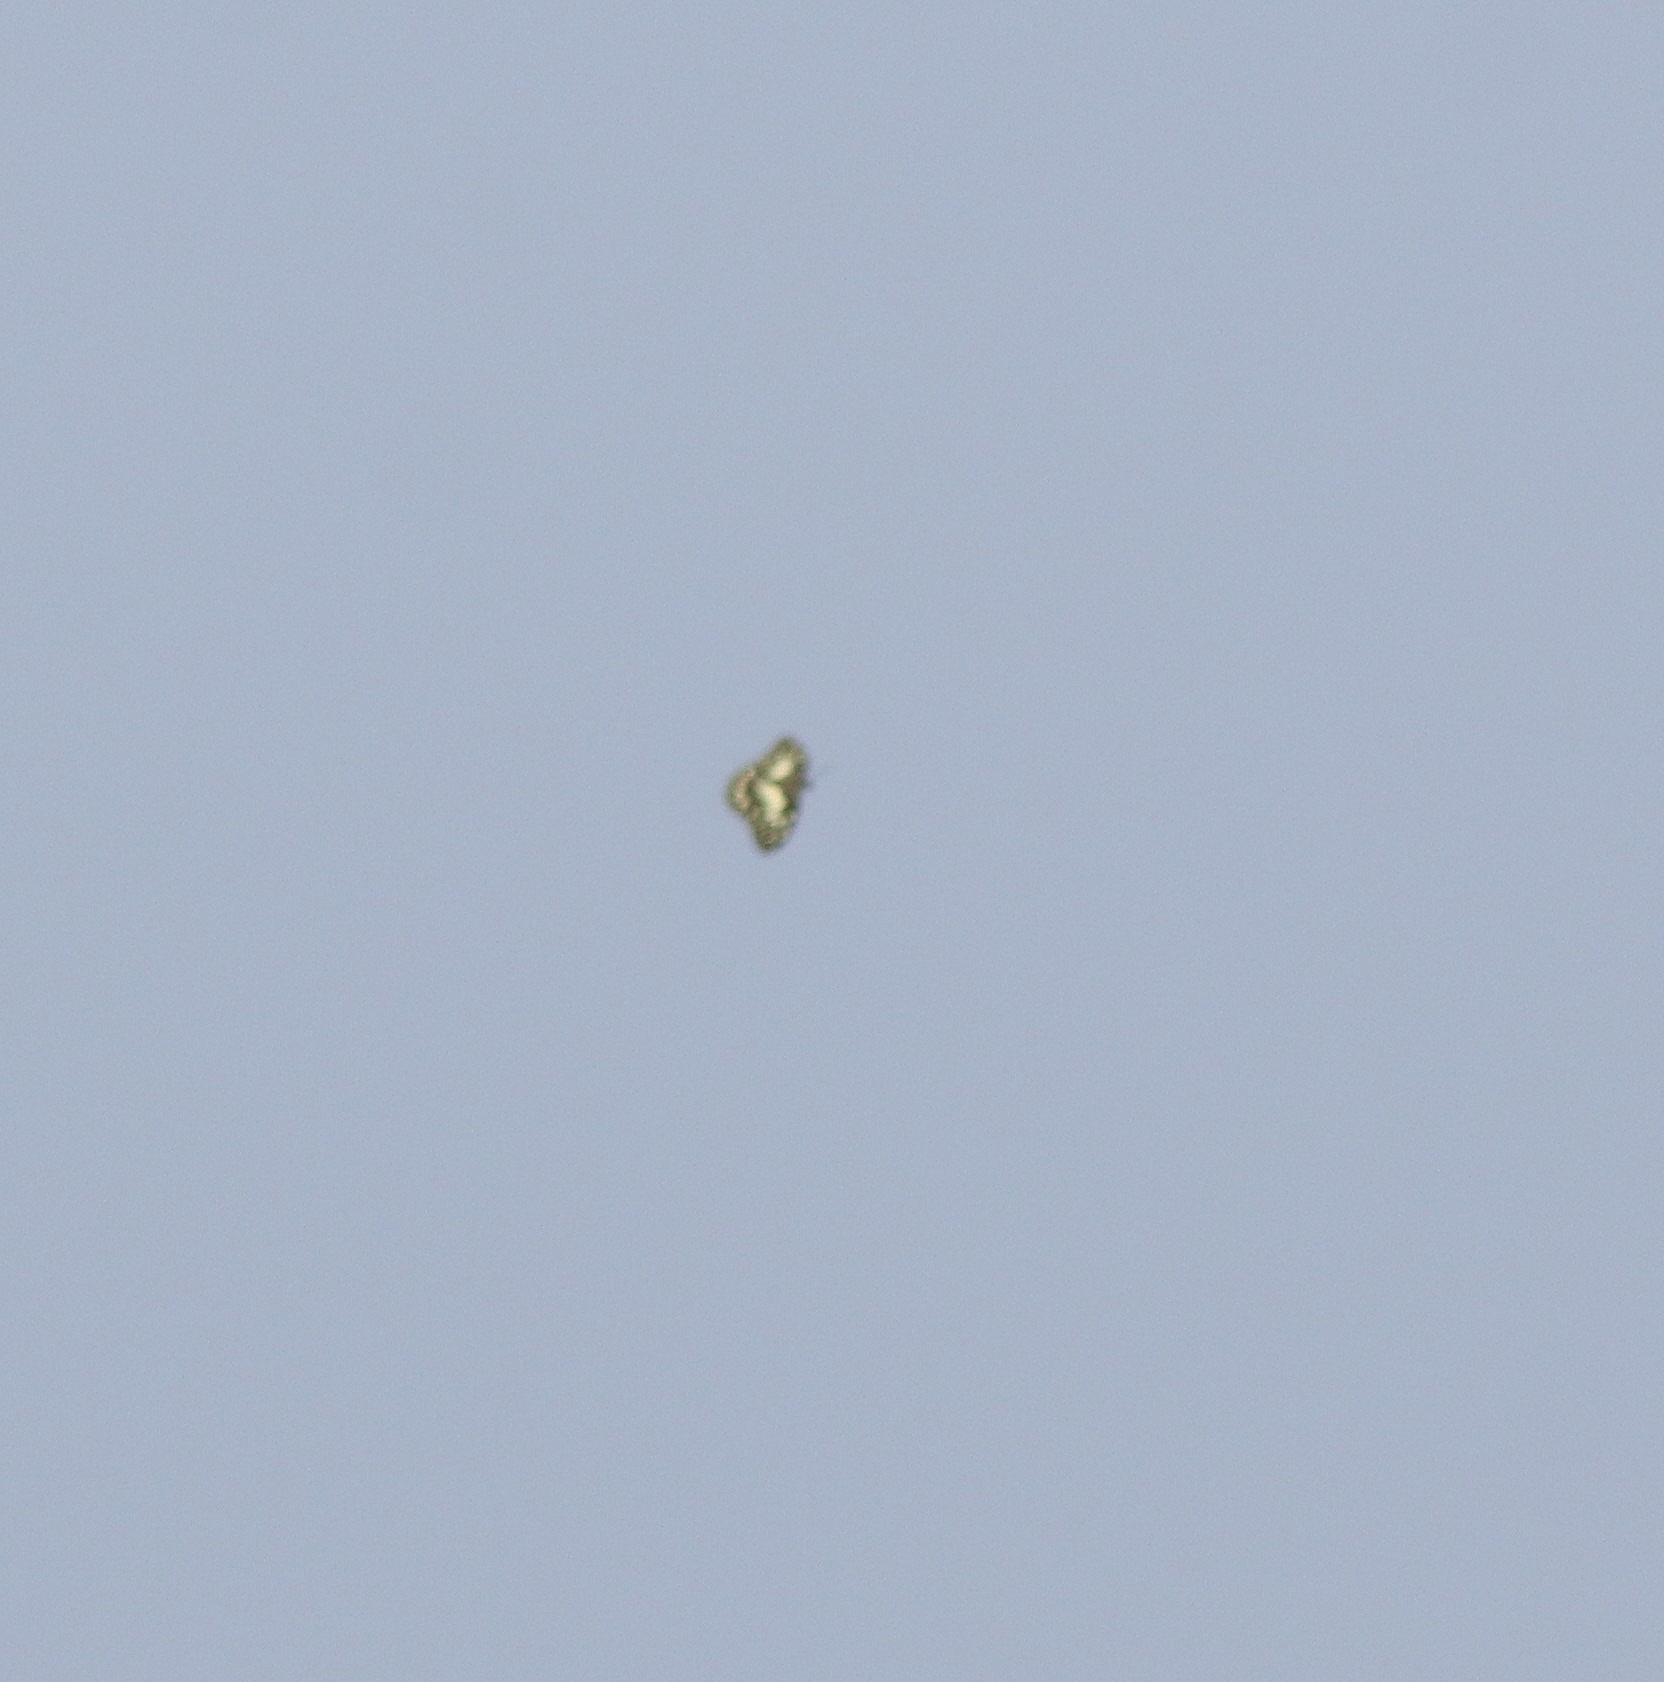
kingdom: Animalia
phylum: Arthropoda
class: Insecta
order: Lepidoptera
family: Papilionidae
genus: Papilio
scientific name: Papilio demoleus
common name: Lime butterfly
